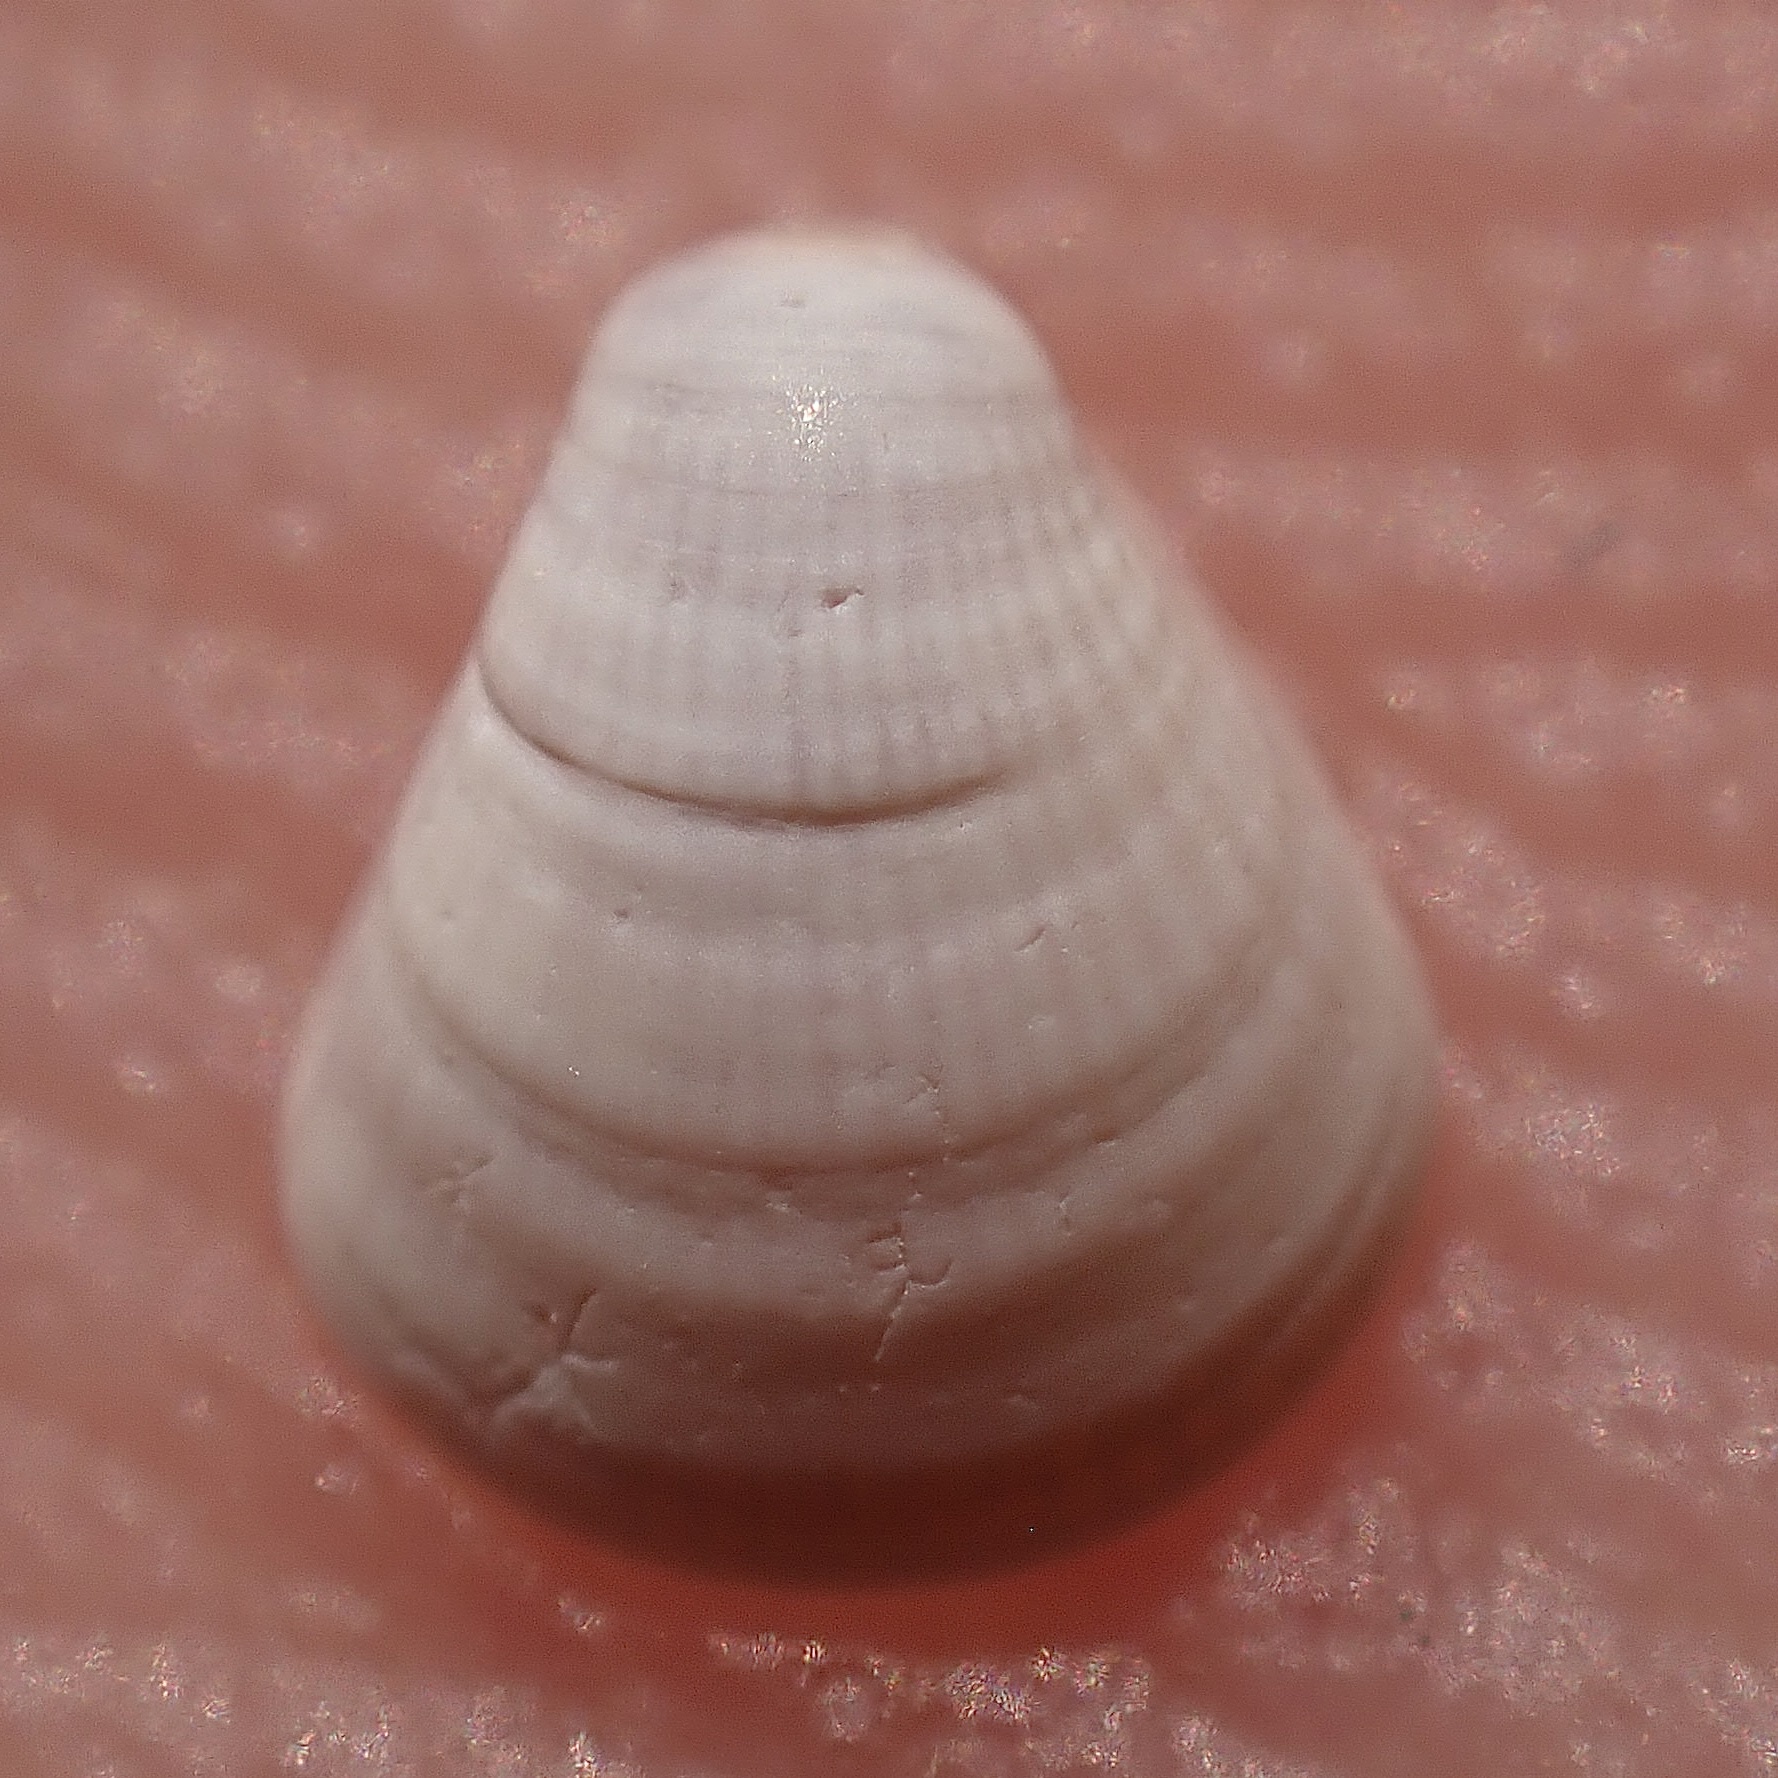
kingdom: Animalia
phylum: Mollusca
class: Bivalvia
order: Venerida
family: Veneridae
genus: Parastarte
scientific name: Parastarte triquetra
